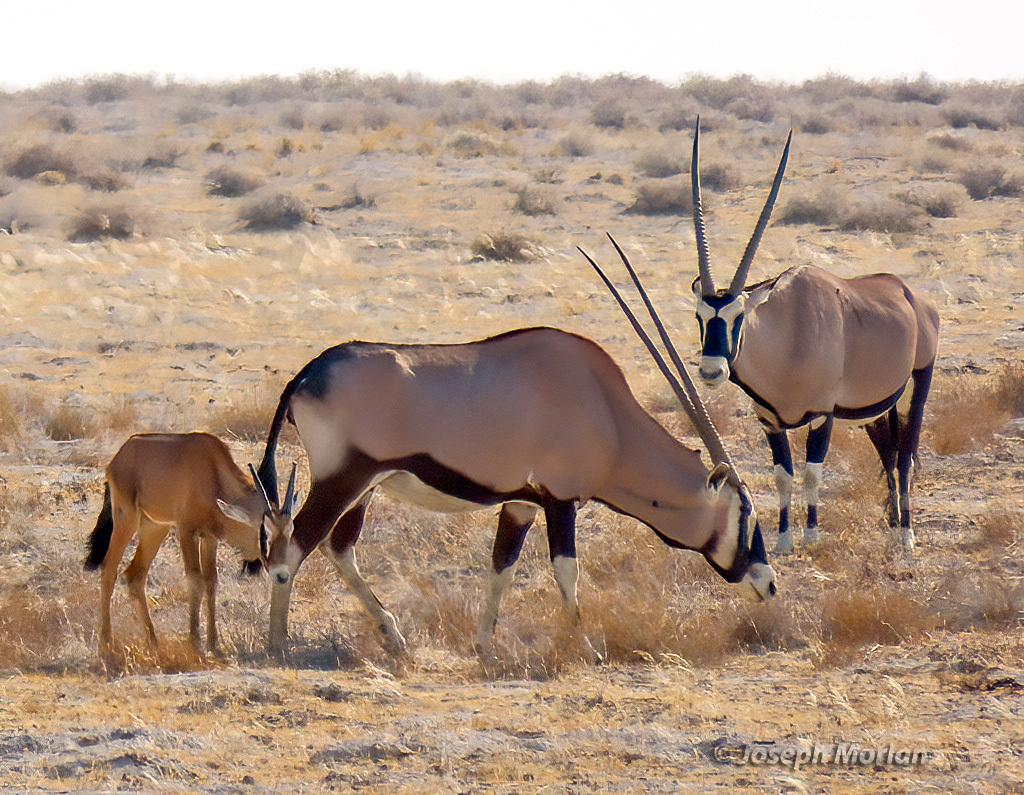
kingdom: Animalia
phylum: Chordata
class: Mammalia
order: Artiodactyla
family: Bovidae
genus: Oryx
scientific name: Oryx gazella
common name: Gemsbok
